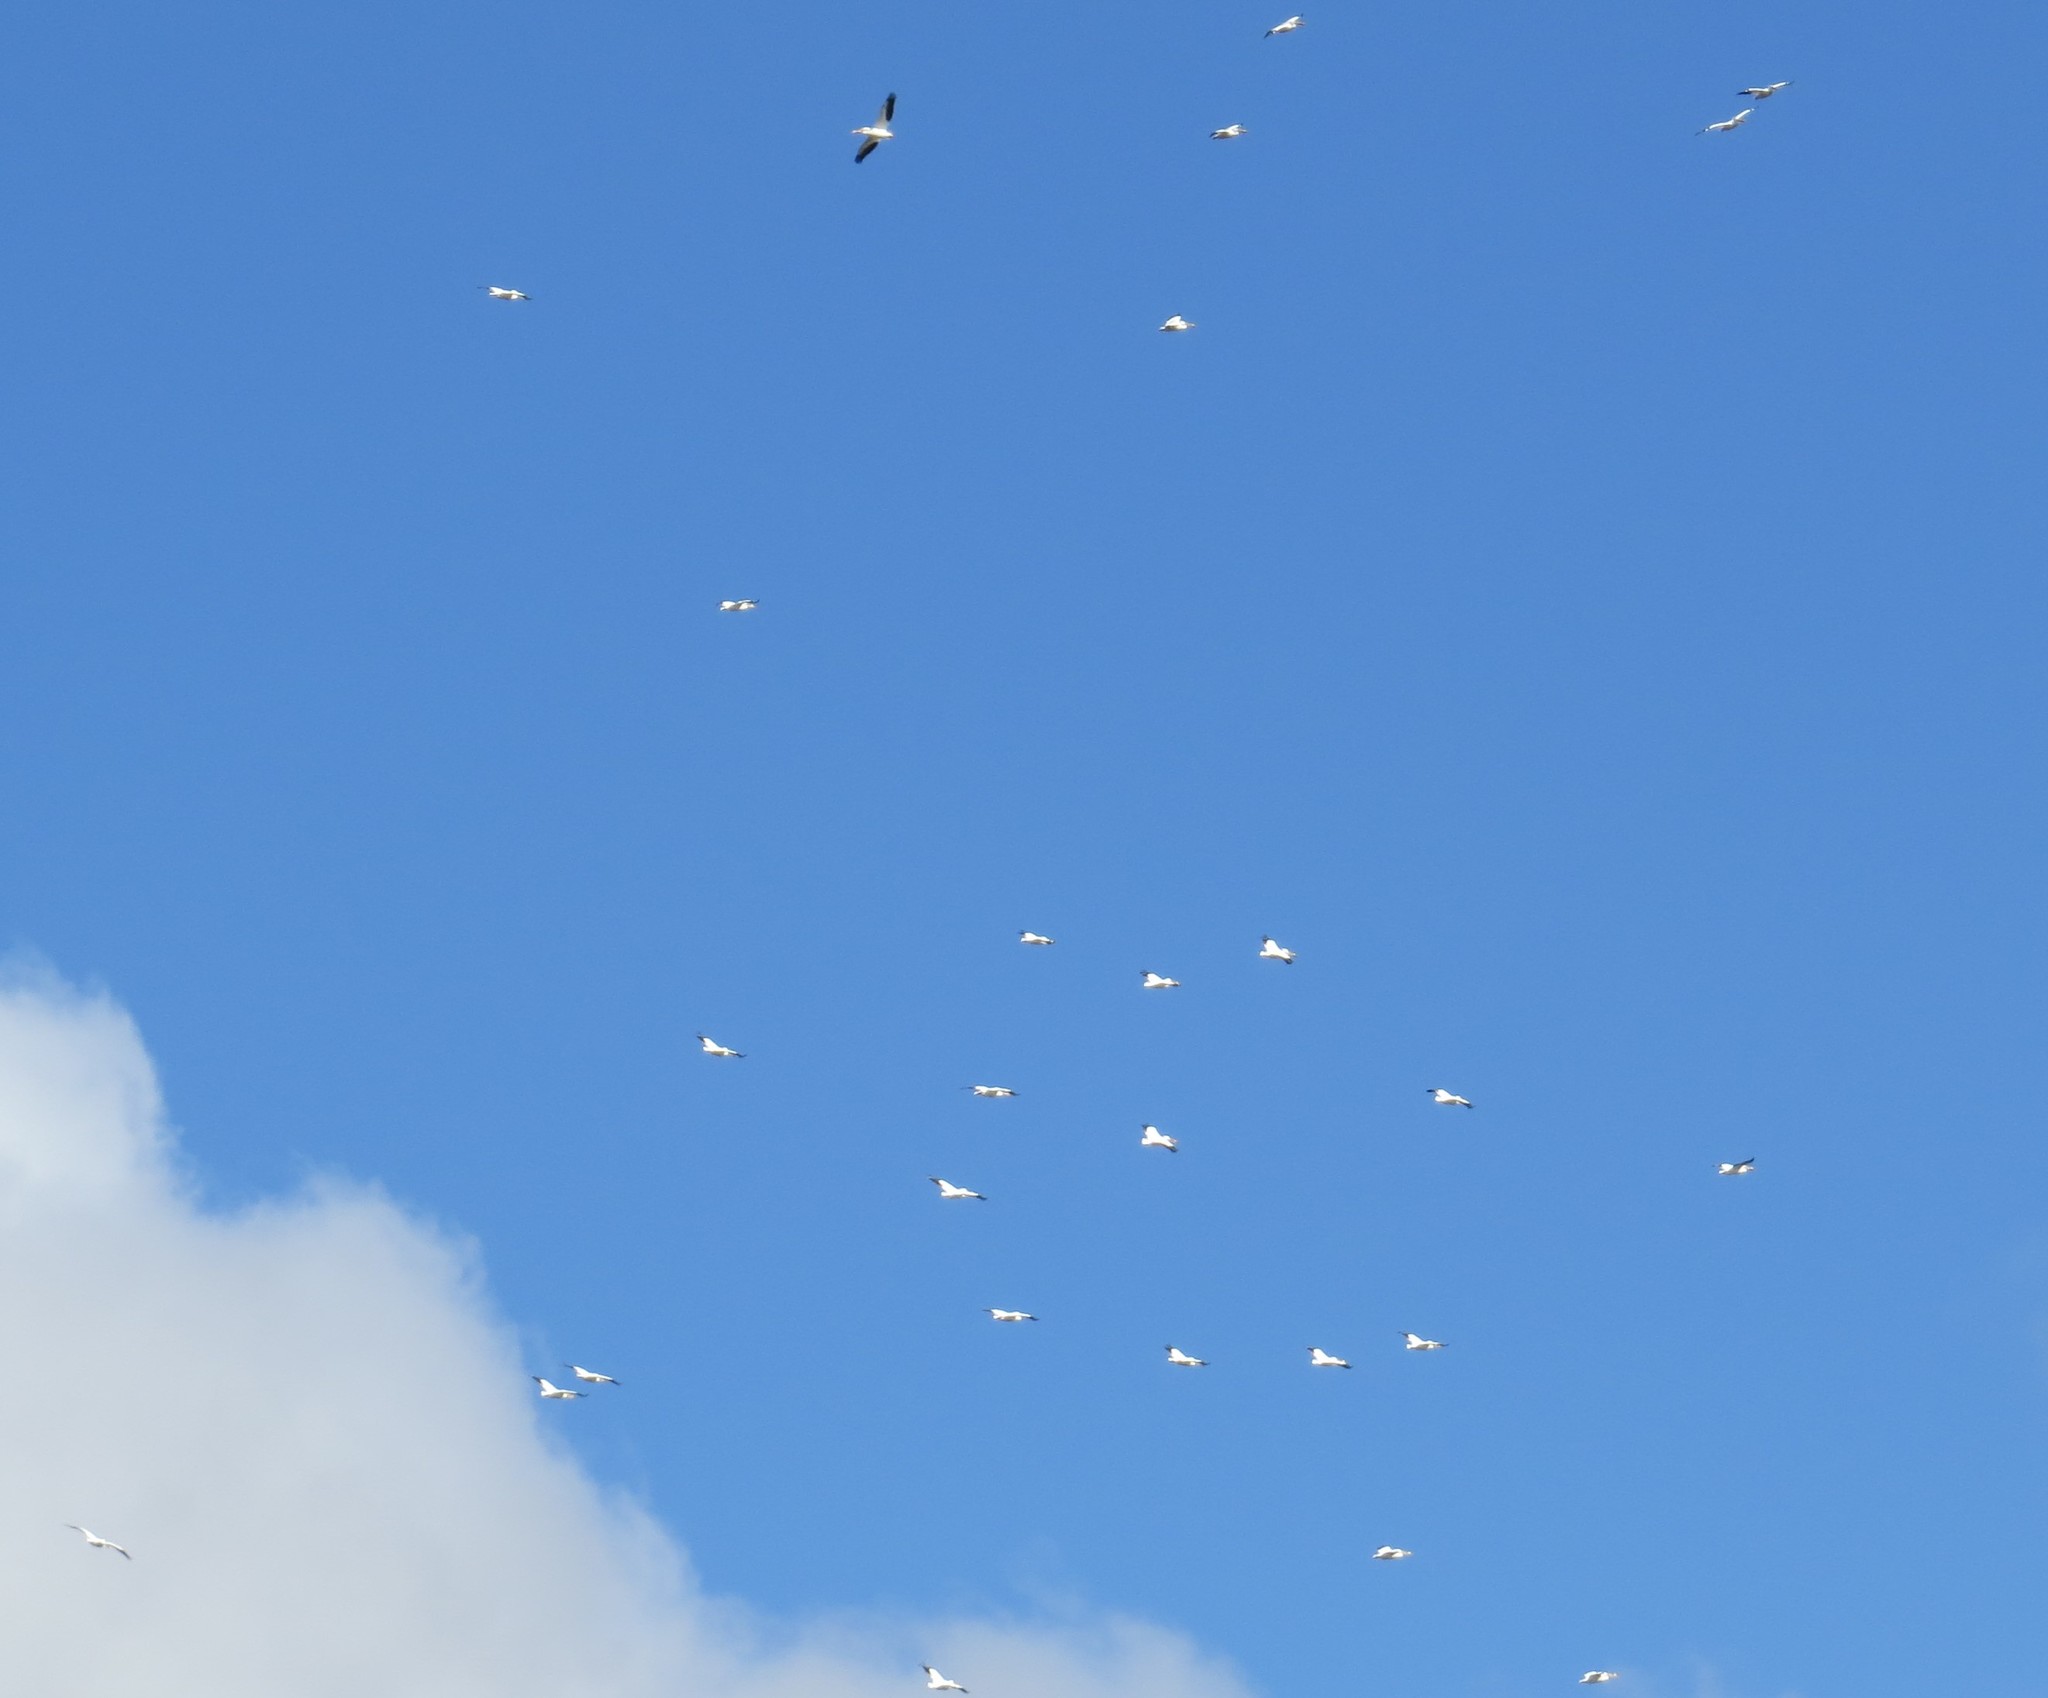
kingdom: Animalia
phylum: Chordata
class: Aves
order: Pelecaniformes
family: Pelecanidae
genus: Pelecanus
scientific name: Pelecanus erythrorhynchos
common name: American white pelican
